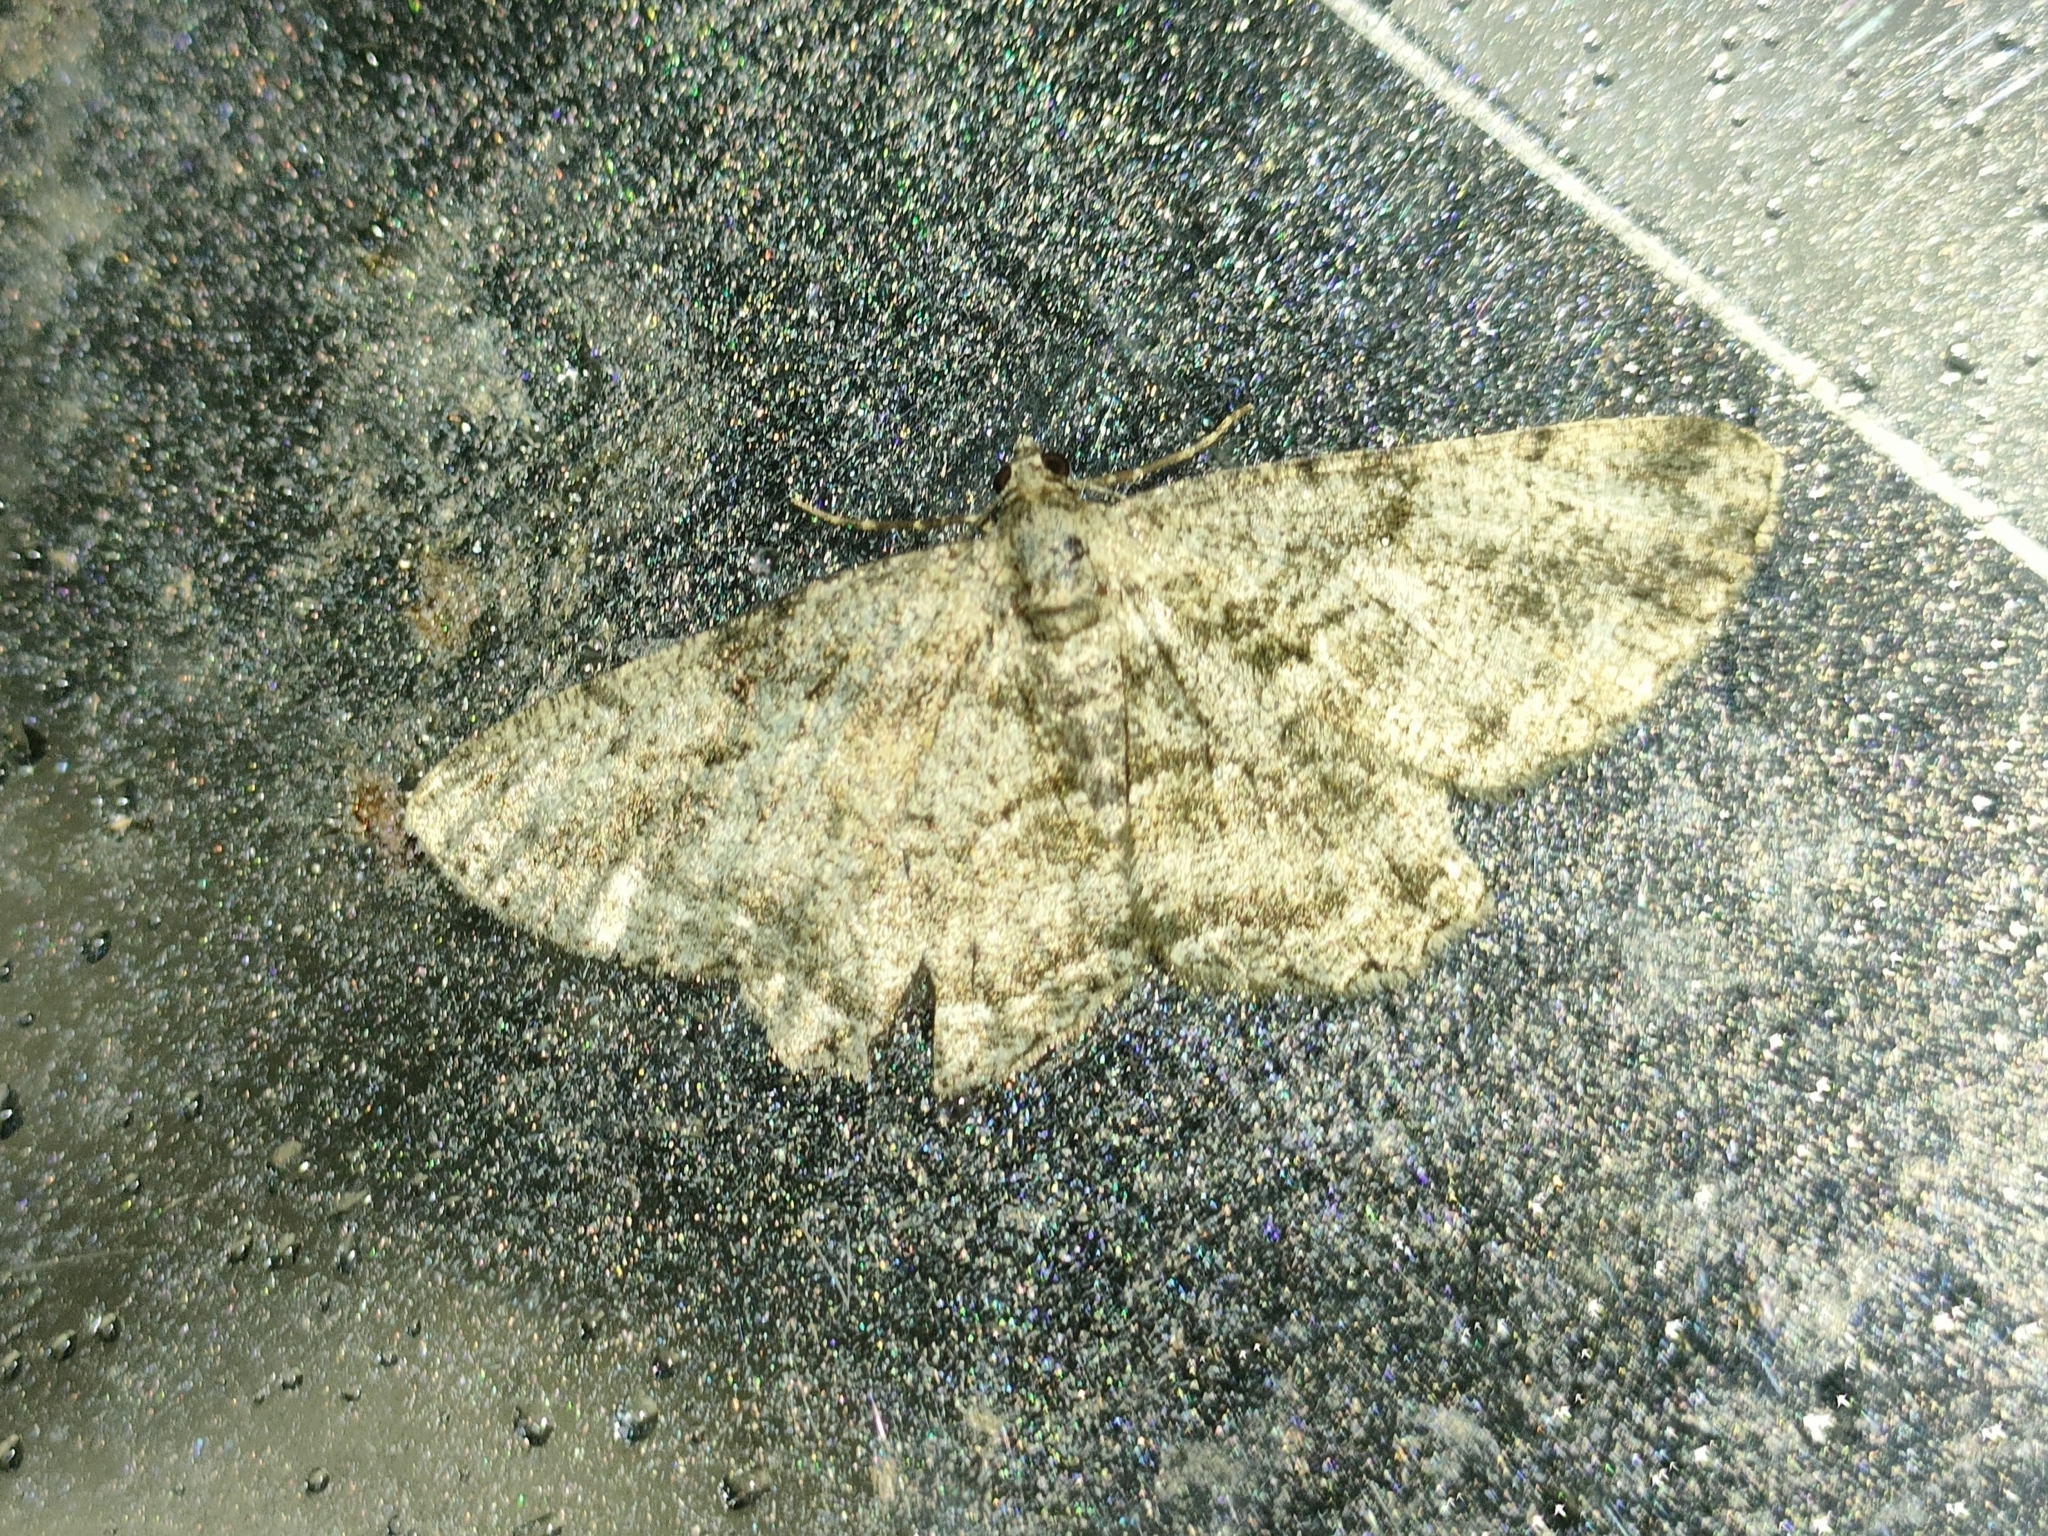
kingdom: Animalia
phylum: Arthropoda
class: Insecta
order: Lepidoptera
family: Geometridae
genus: Peribatodes
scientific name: Peribatodes rhomboidaria
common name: Willow beauty
